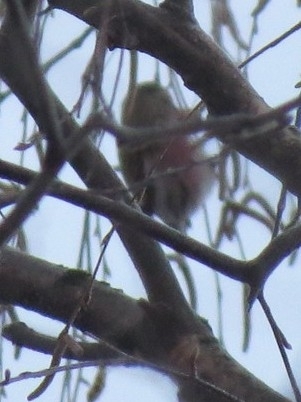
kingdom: Animalia
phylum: Chordata
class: Aves
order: Passeriformes
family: Fringillidae
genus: Acanthis
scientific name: Acanthis flammea
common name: Common redpoll
